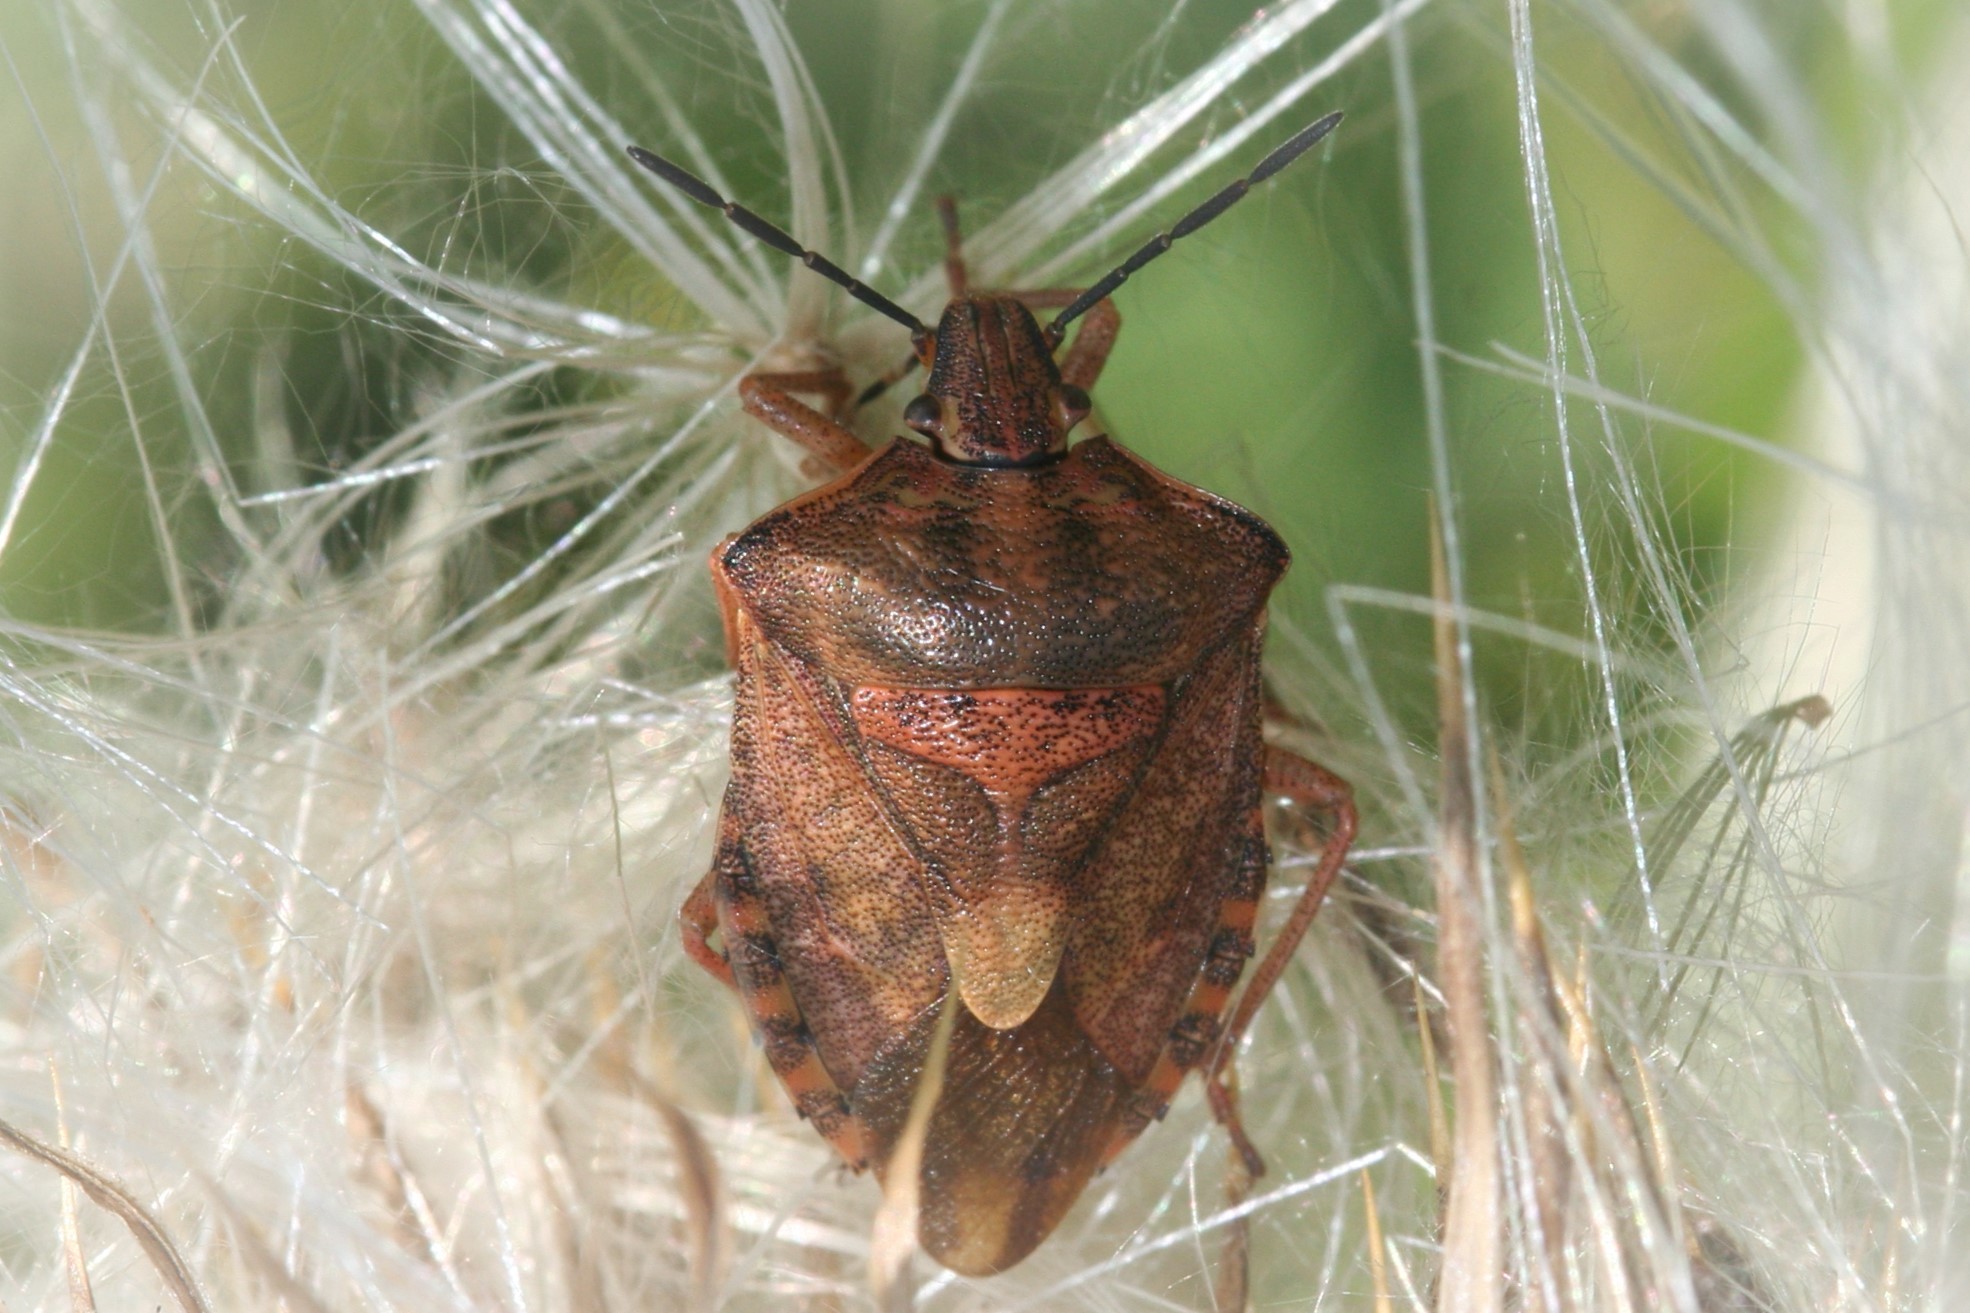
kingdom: Animalia
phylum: Arthropoda
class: Insecta
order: Hemiptera
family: Pentatomidae
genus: Carpocoris
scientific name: Carpocoris purpureipennis
